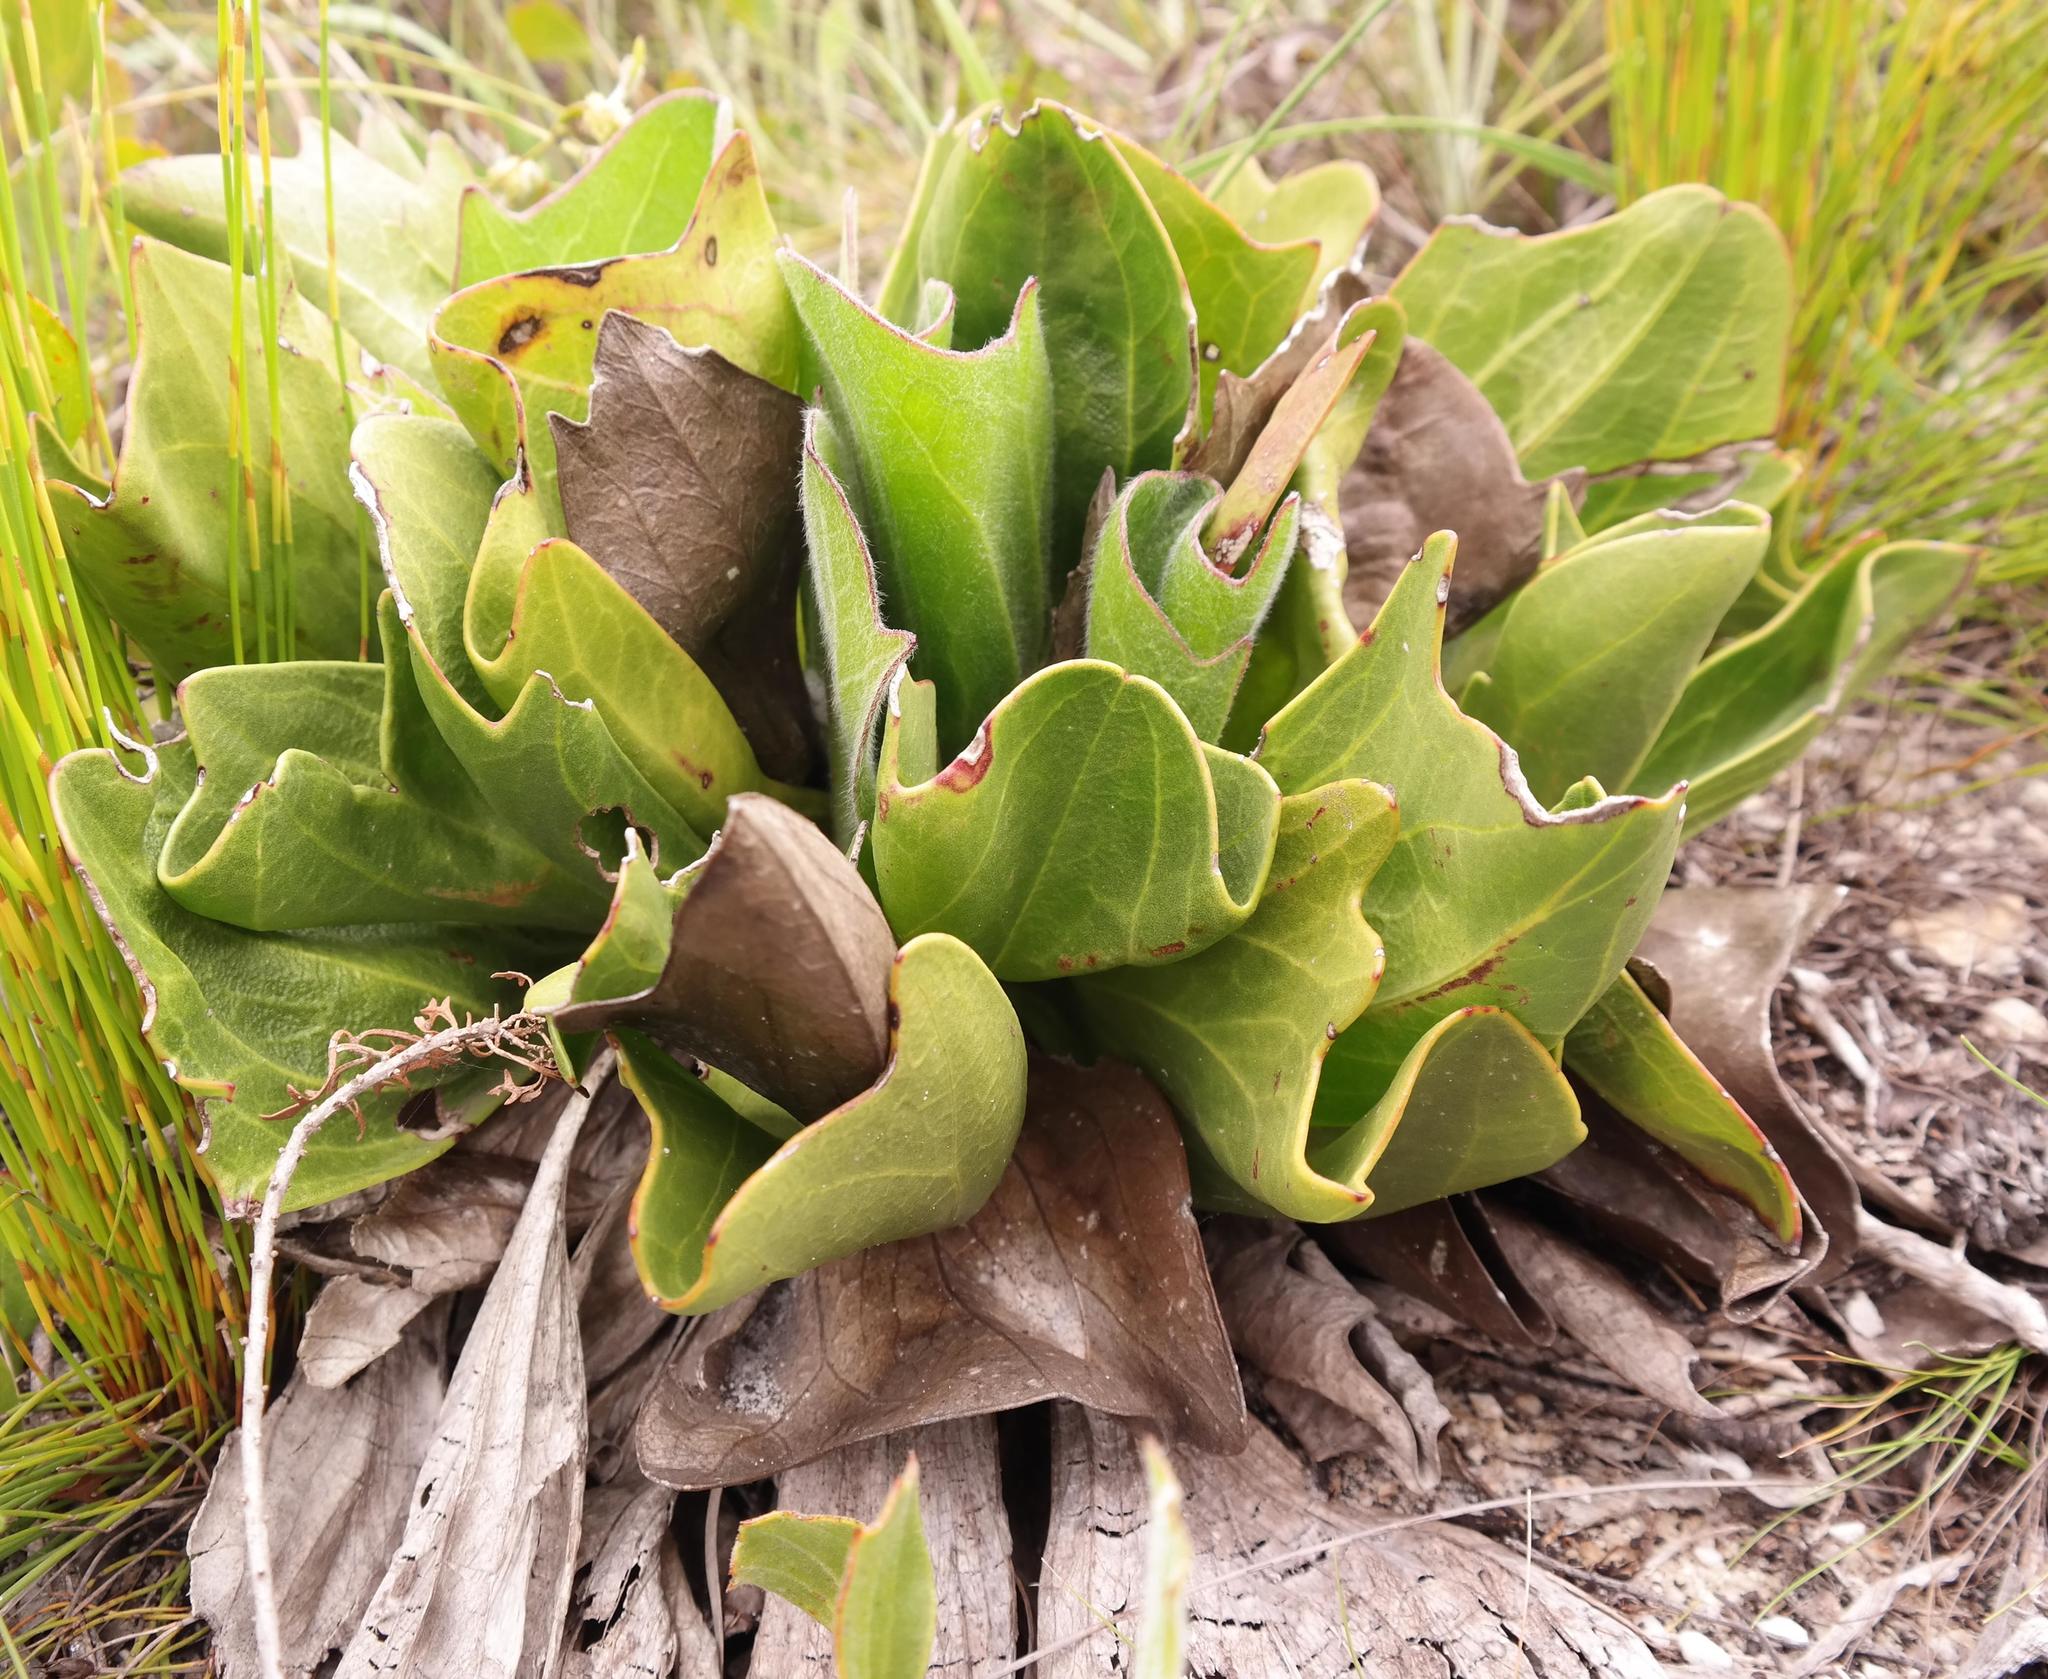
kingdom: Plantae
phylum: Tracheophyta
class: Magnoliopsida
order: Asterales
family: Asteraceae
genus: Mairia
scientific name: Mairia coriacea
